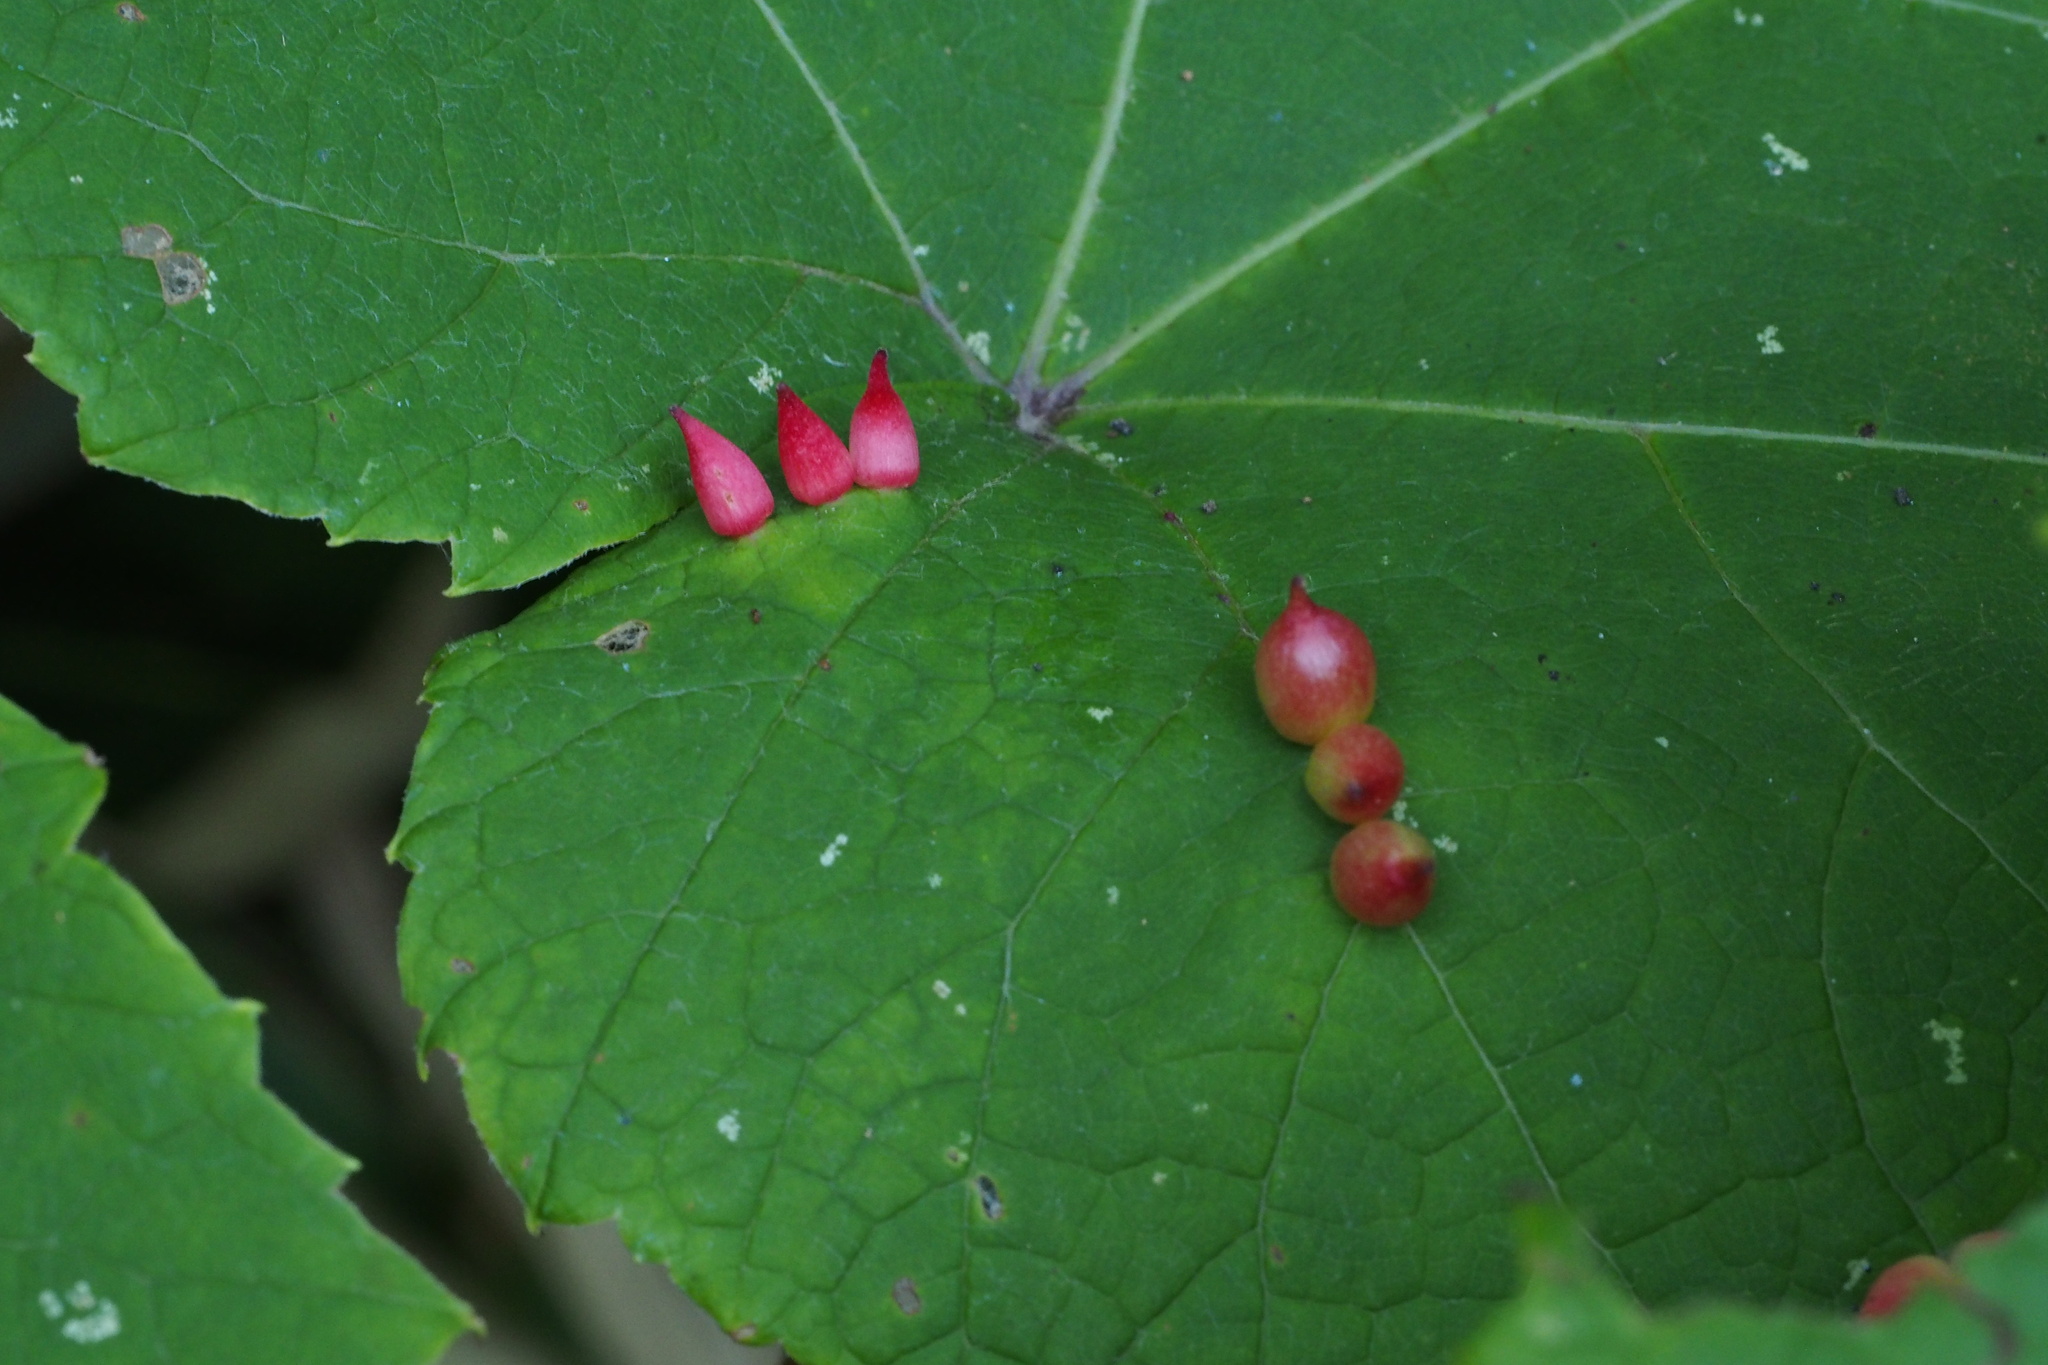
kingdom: Animalia
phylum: Arthropoda
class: Insecta
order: Diptera
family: Cecidomyiidae
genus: Ampelomyia
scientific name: Ampelomyia conicocoricis
